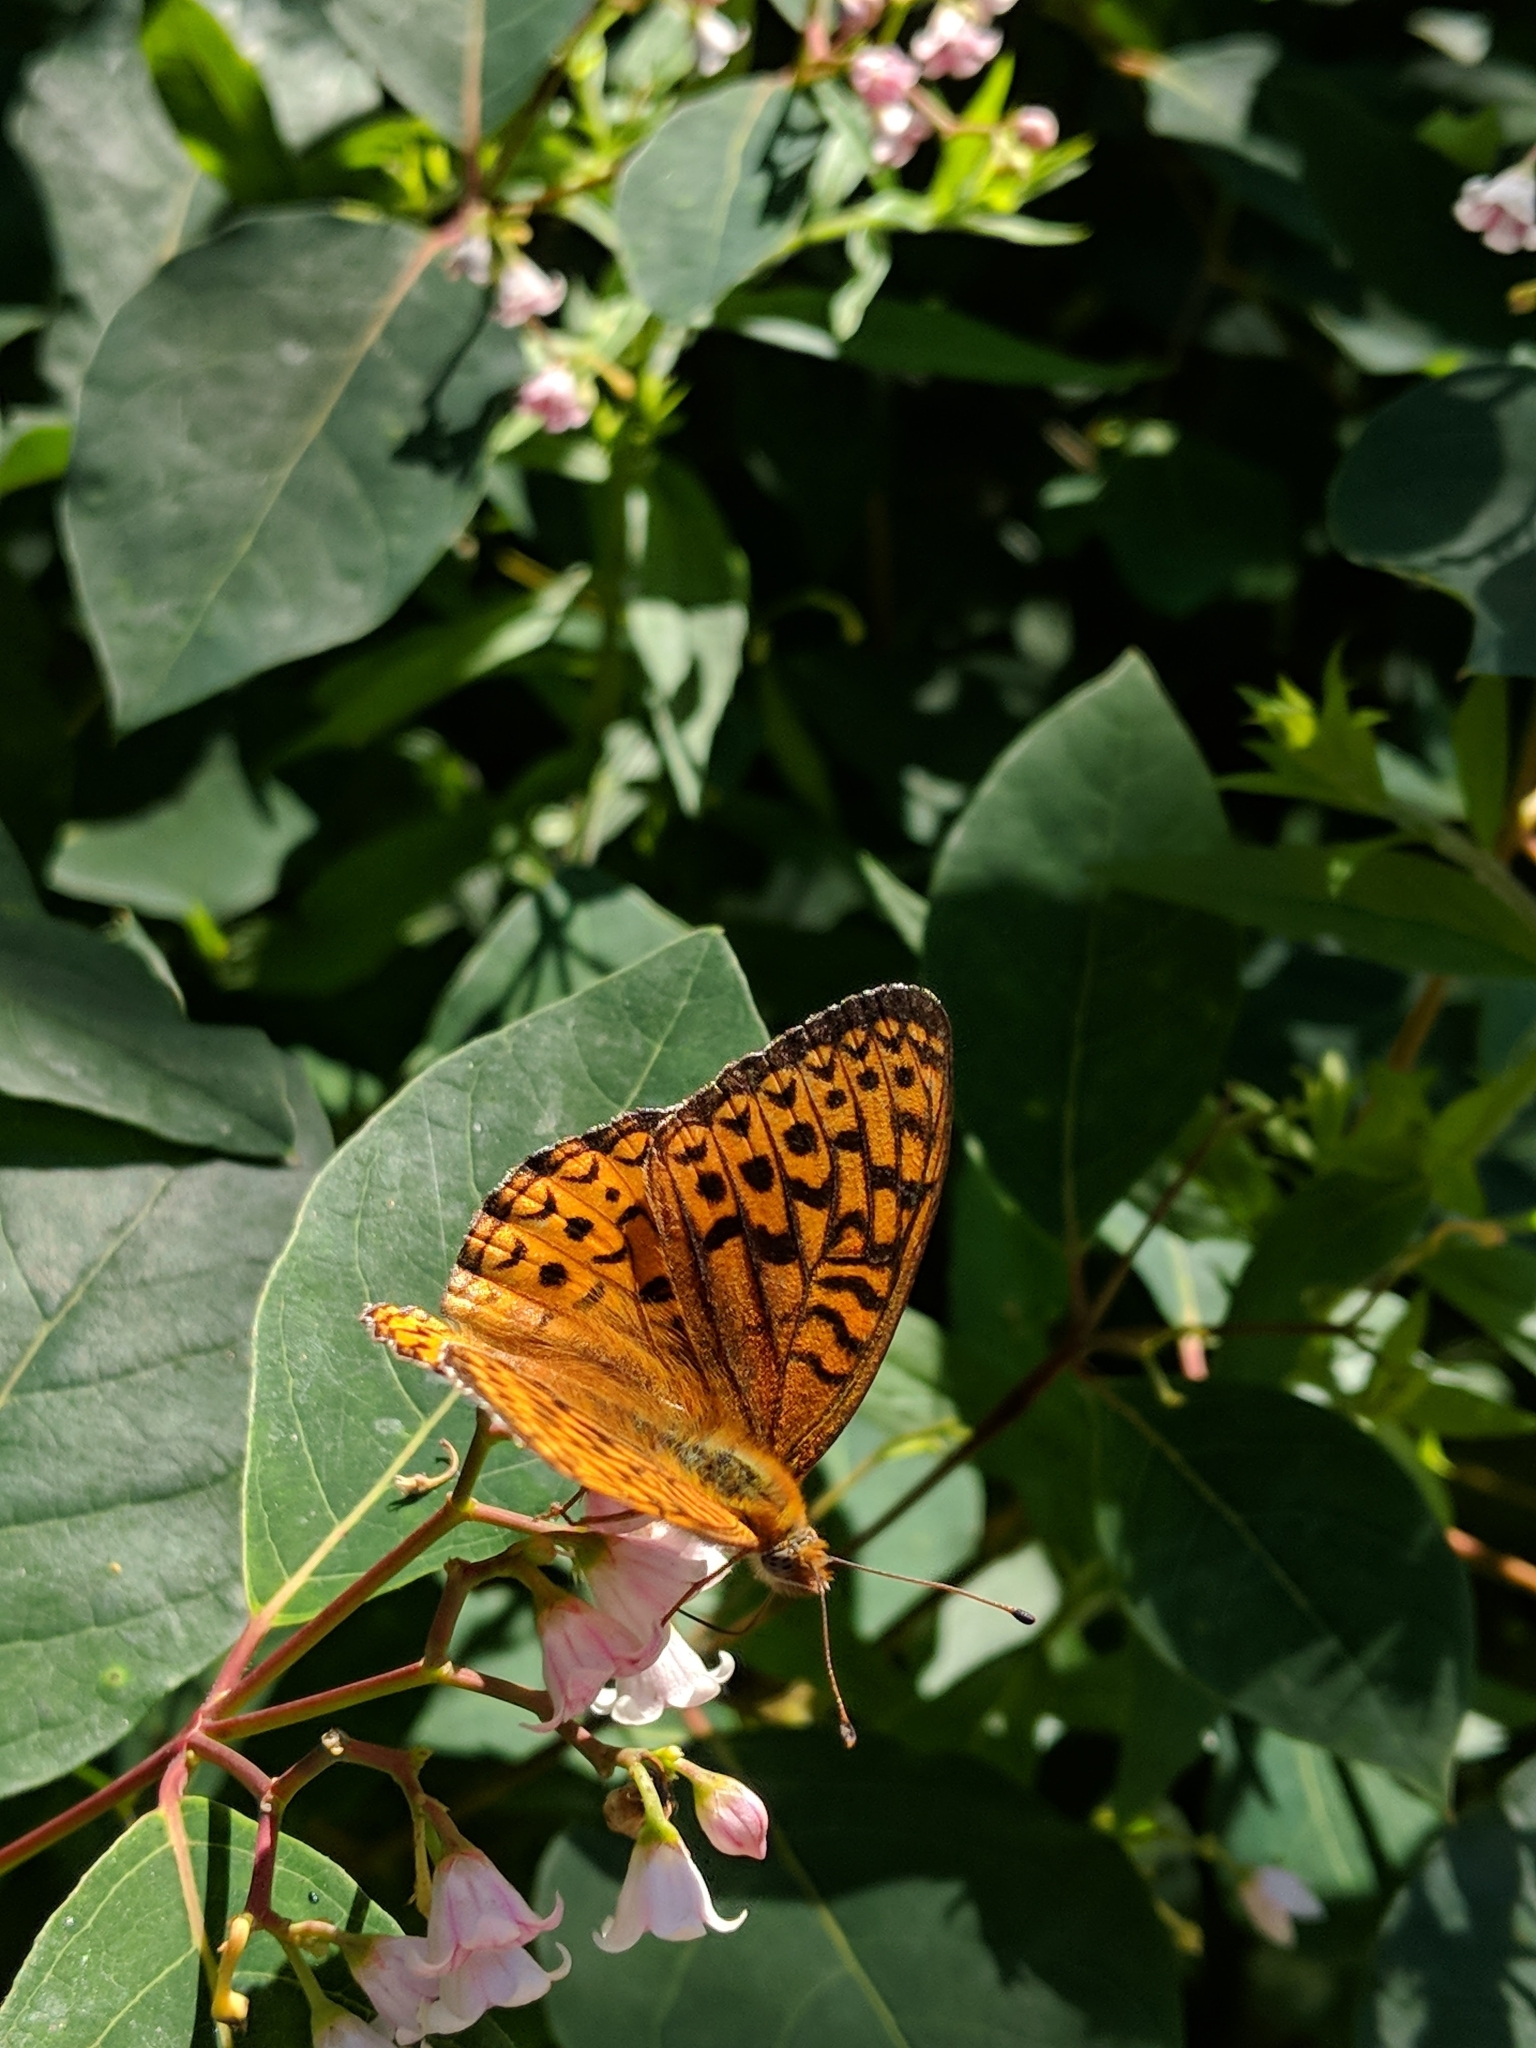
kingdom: Animalia
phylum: Arthropoda
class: Insecta
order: Lepidoptera
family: Nymphalidae
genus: Speyeria
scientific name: Speyeria atlantis
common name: Atlantis fritillary
